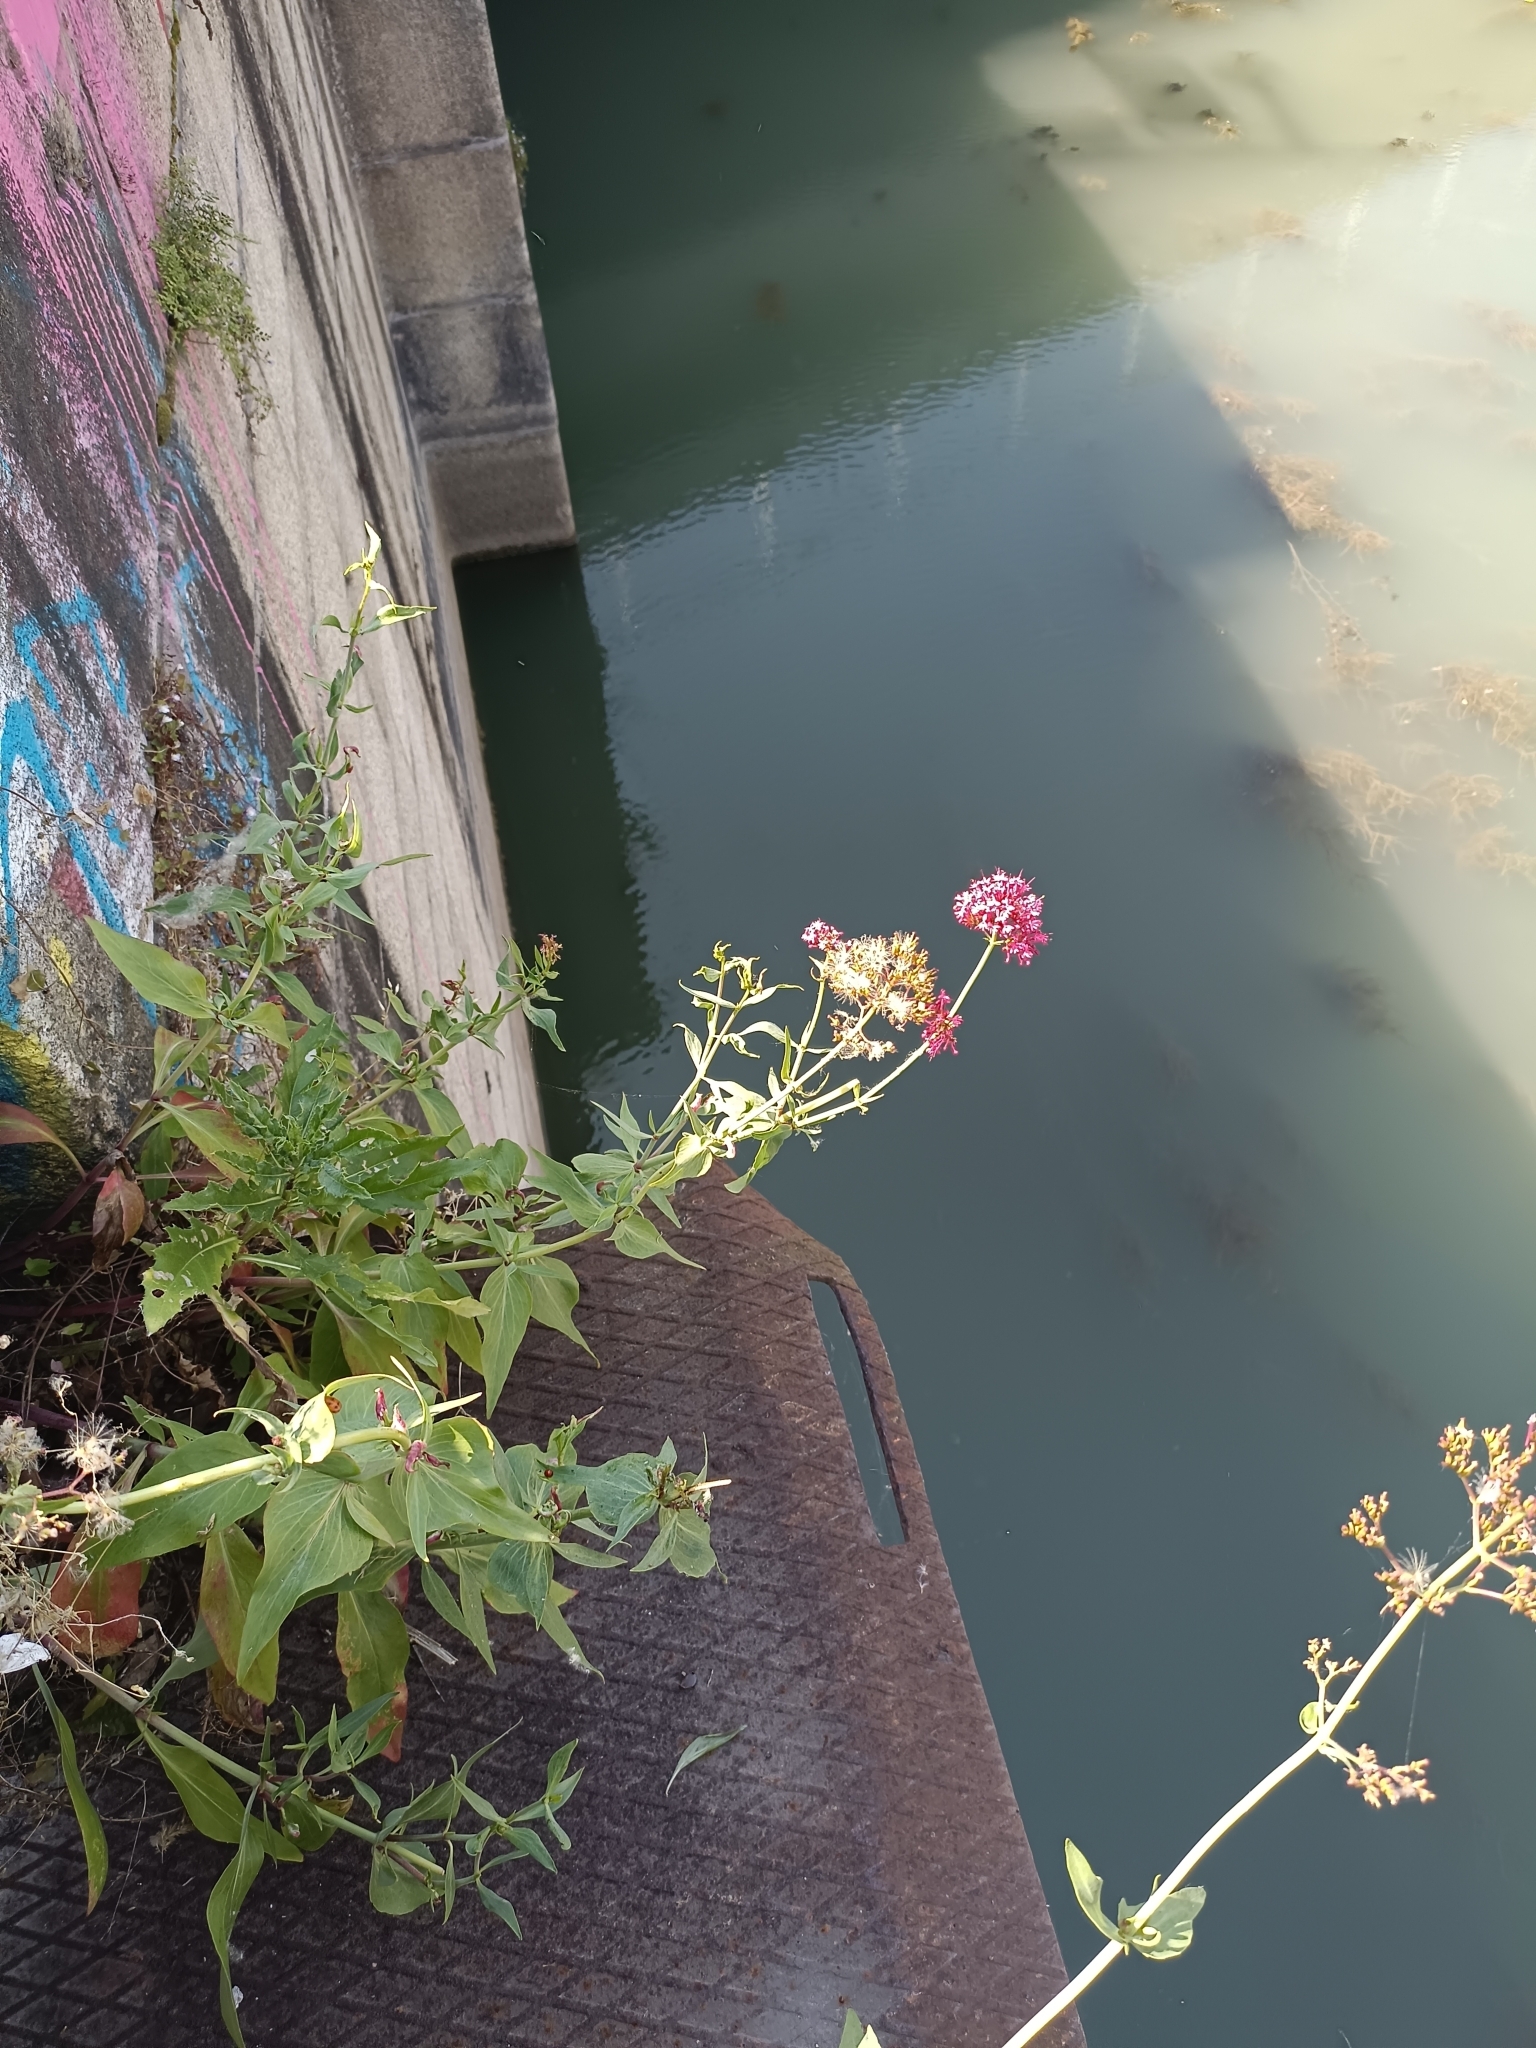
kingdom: Plantae
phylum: Tracheophyta
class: Magnoliopsida
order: Dipsacales
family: Caprifoliaceae
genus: Centranthus
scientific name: Centranthus ruber
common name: Red valerian
